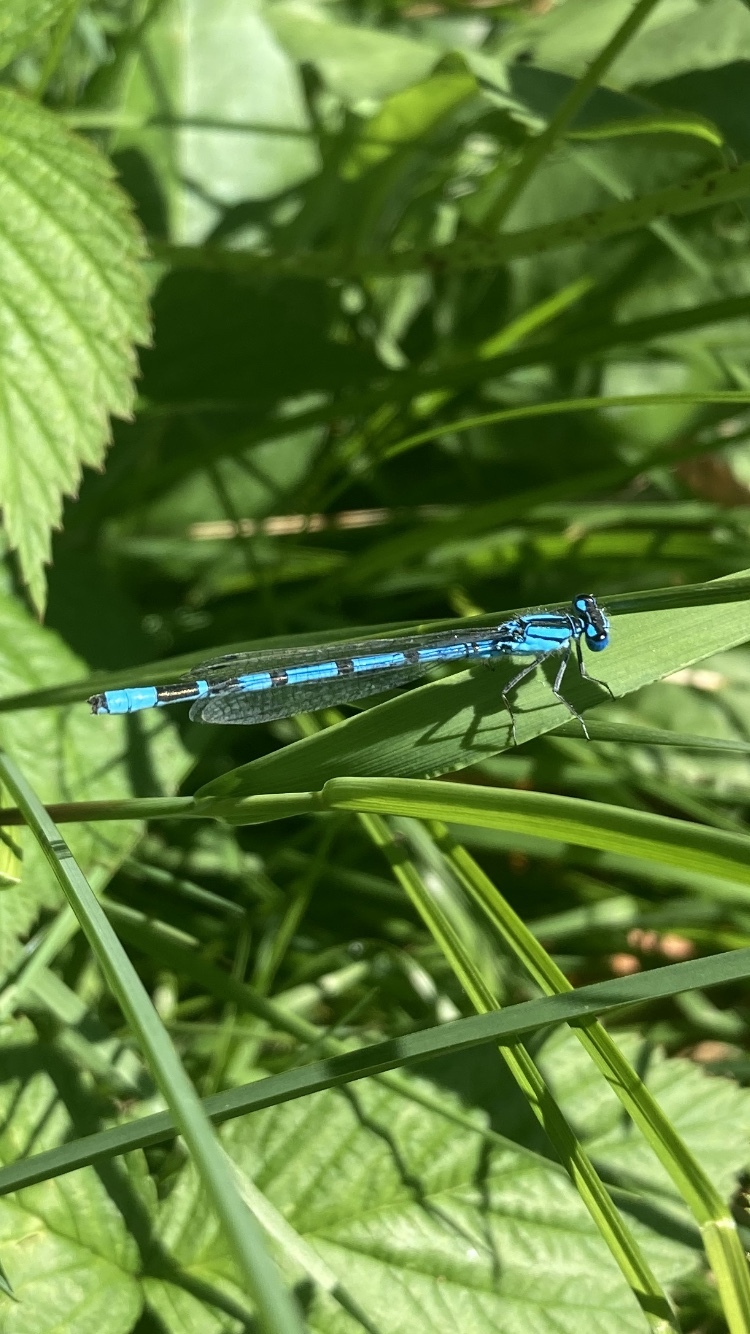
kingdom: Animalia
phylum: Arthropoda
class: Insecta
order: Odonata
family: Coenagrionidae
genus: Enallagma
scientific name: Enallagma cyathigerum
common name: Common blue damselfly
